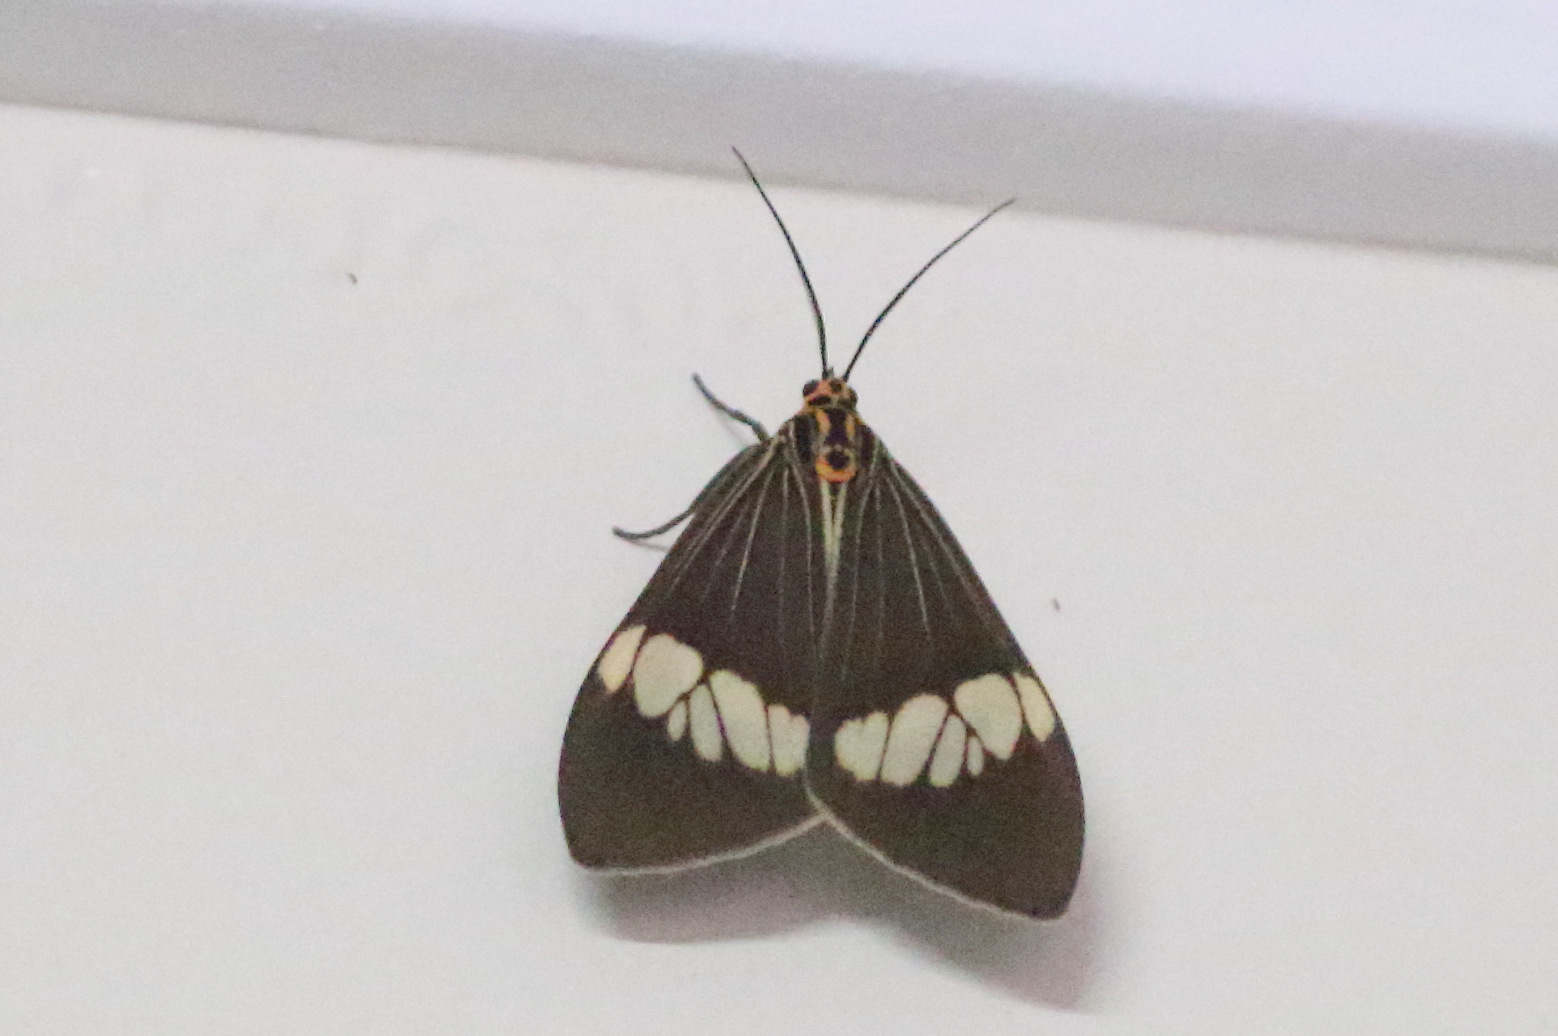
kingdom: Animalia
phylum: Arthropoda
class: Insecta
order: Lepidoptera
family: Erebidae
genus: Nyctemera
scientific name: Nyctemera baulus
